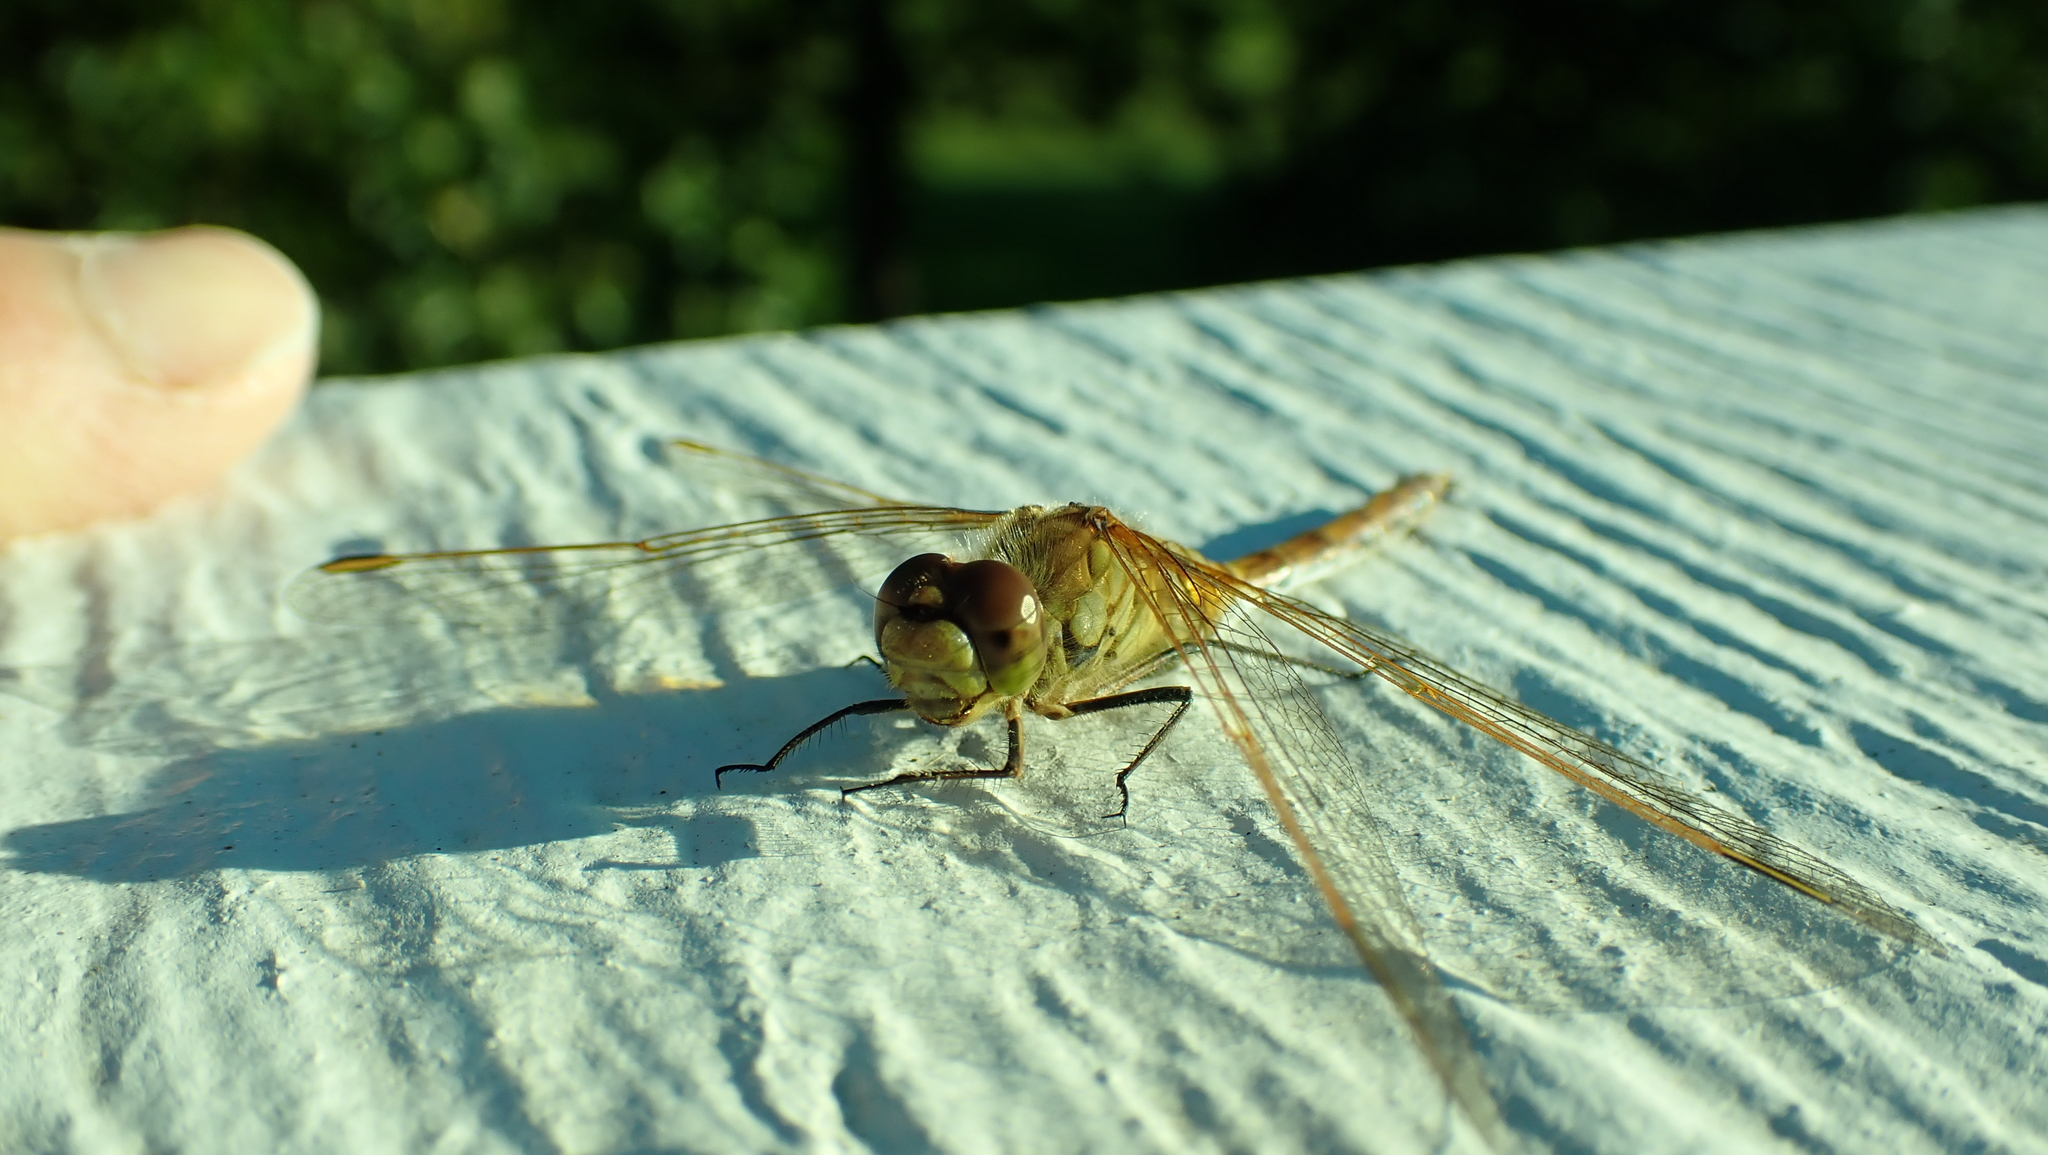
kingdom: Animalia
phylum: Arthropoda
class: Insecta
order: Odonata
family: Libellulidae
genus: Sympetrum
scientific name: Sympetrum costiferum
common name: Saffron-winged meadowhawk
